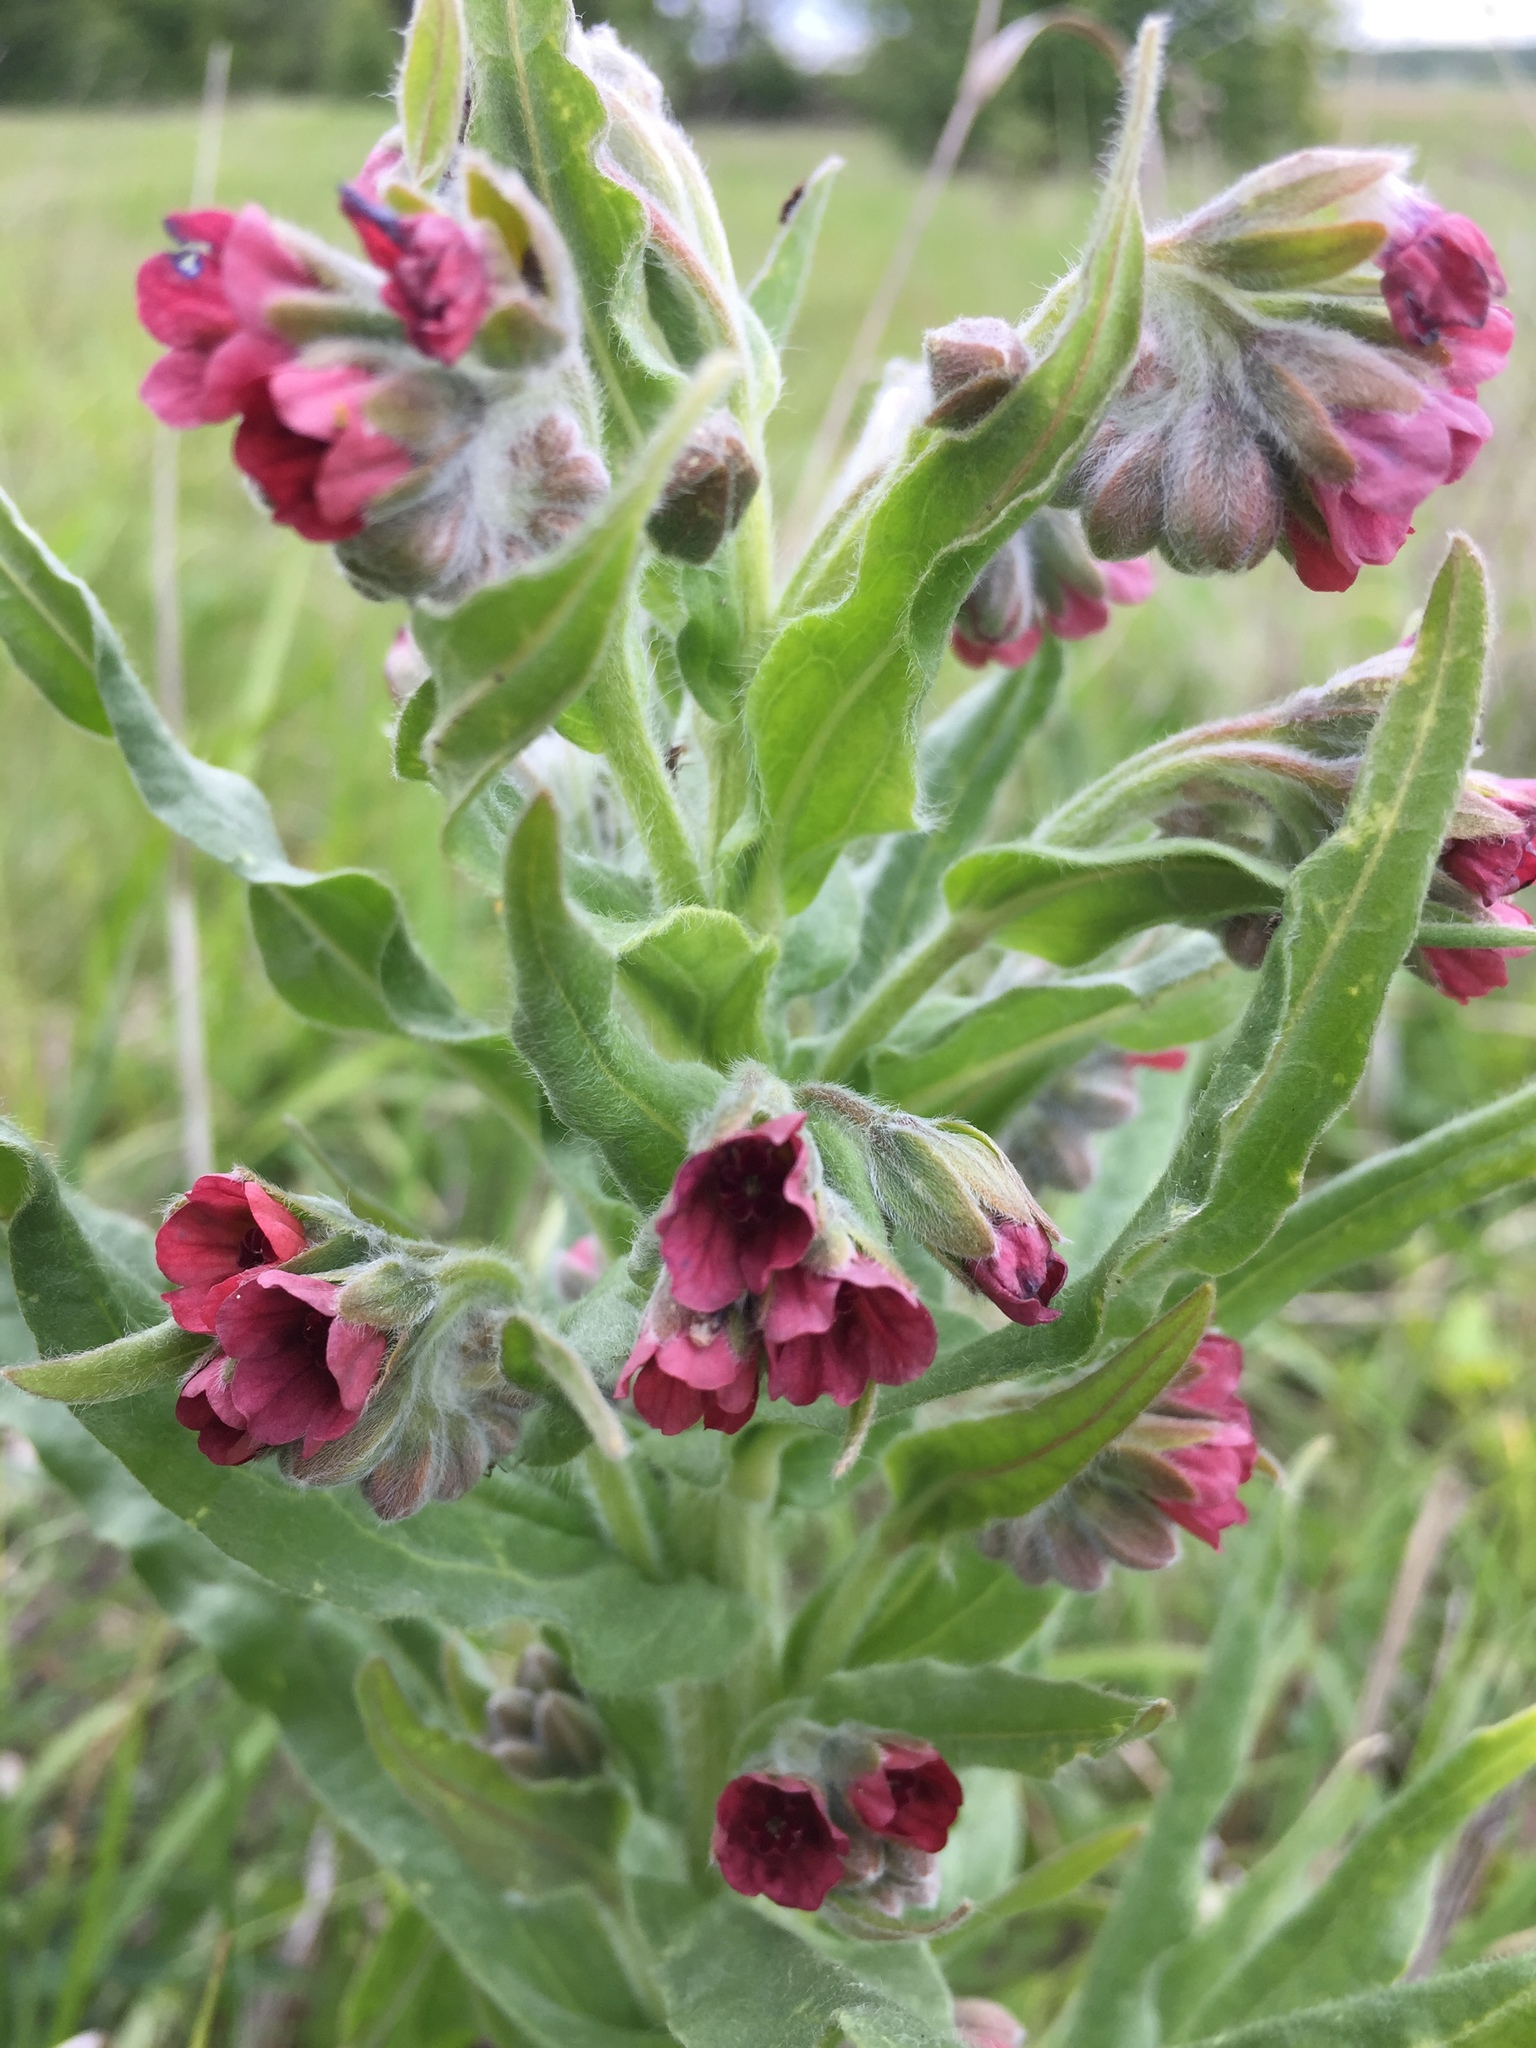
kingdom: Plantae
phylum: Tracheophyta
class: Magnoliopsida
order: Boraginales
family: Boraginaceae
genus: Cynoglossum
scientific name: Cynoglossum officinale
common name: Hound's-tongue
